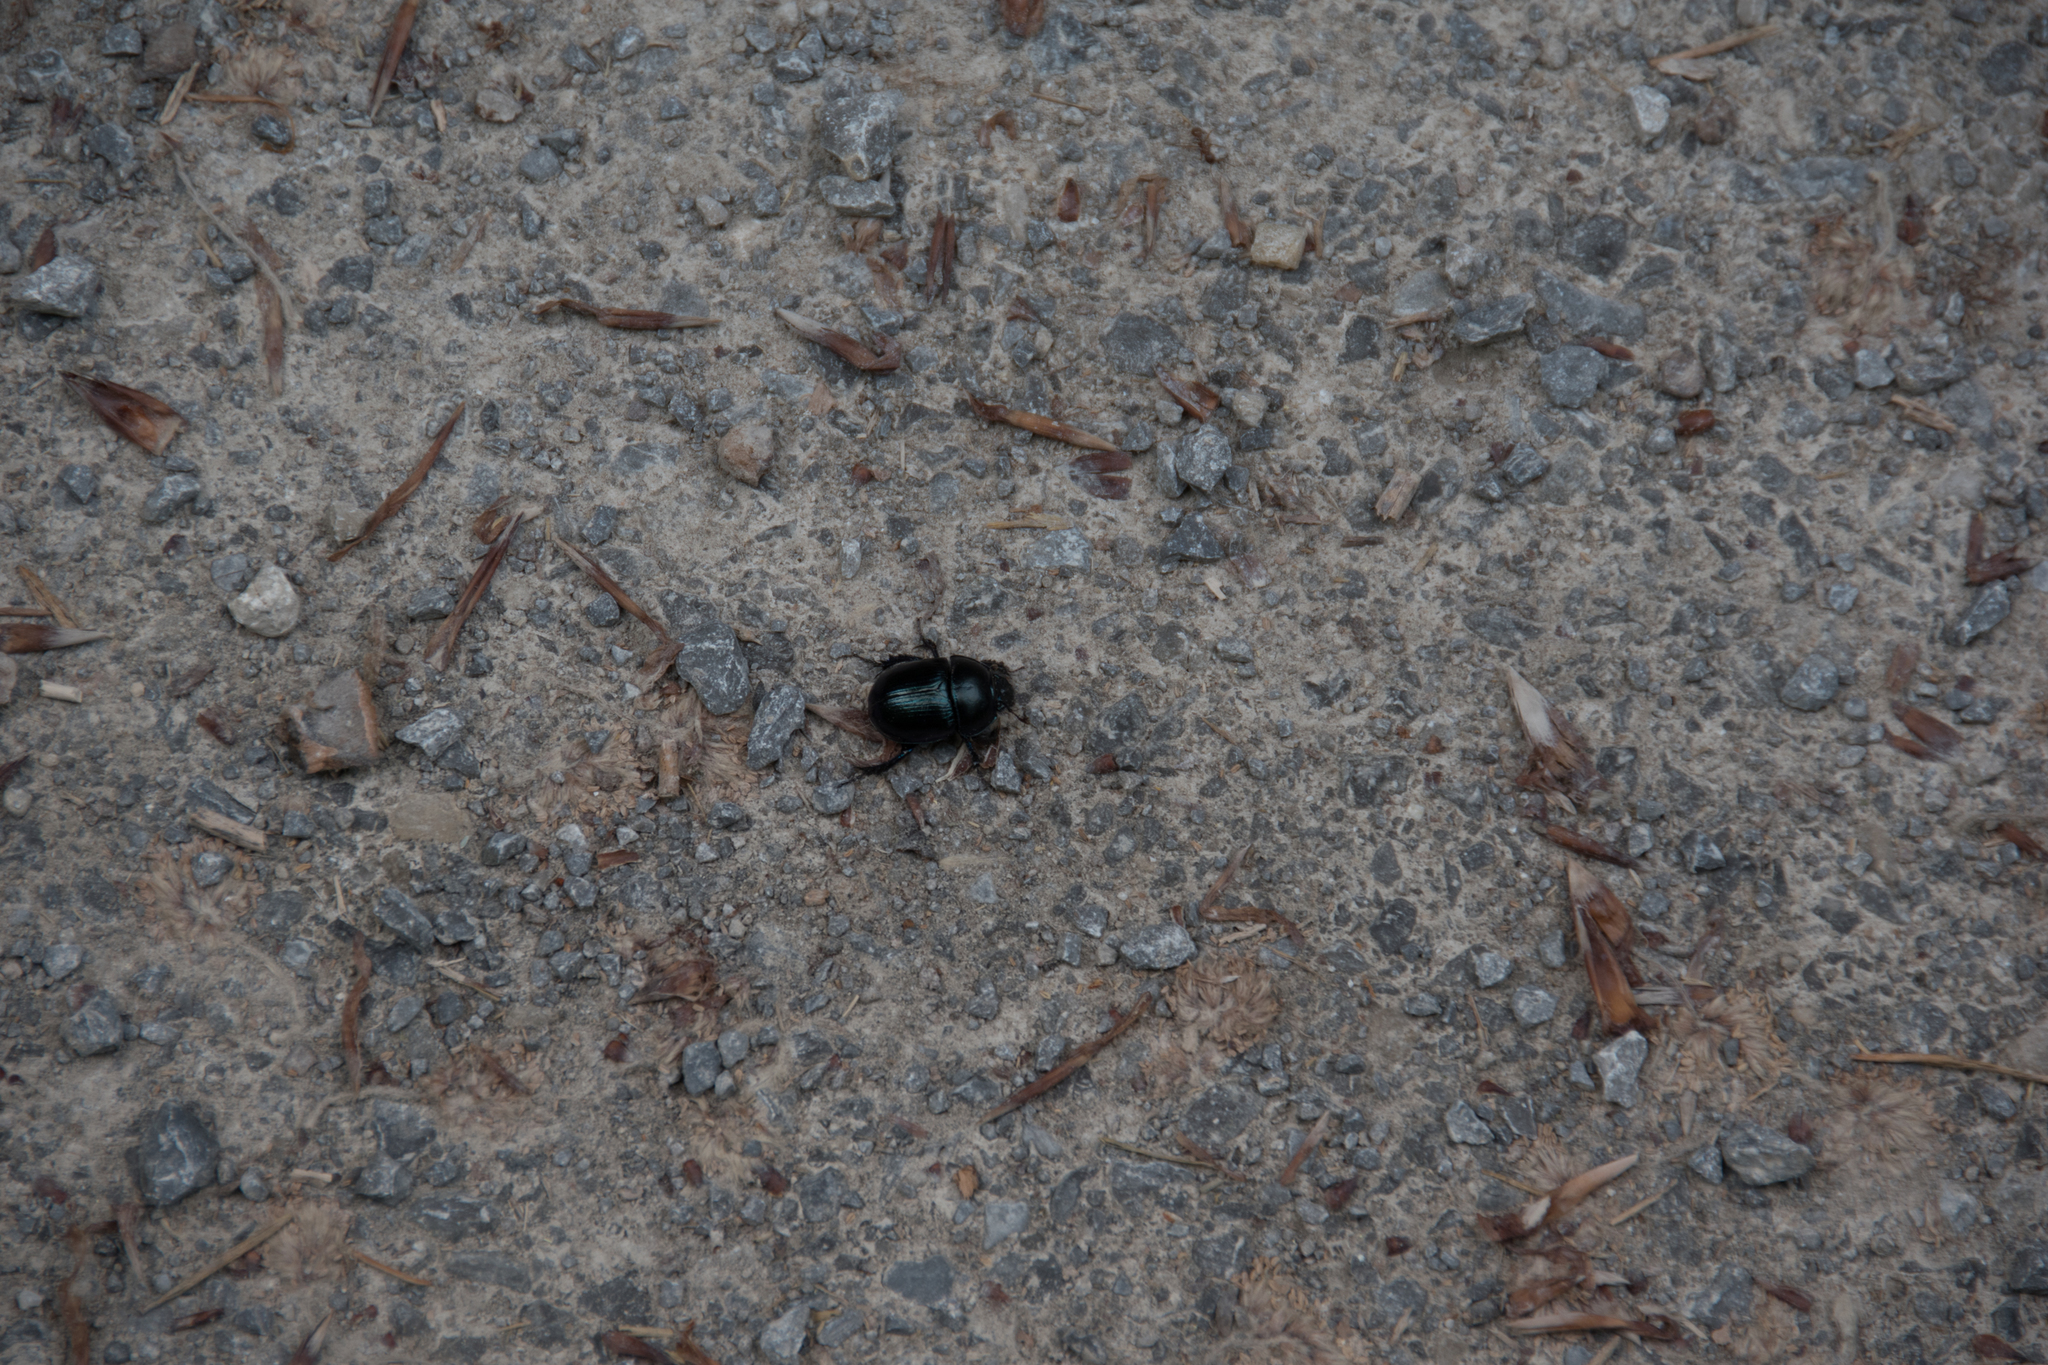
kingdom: Animalia
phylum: Arthropoda
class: Insecta
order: Coleoptera
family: Geotrupidae
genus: Anoplotrupes
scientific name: Anoplotrupes stercorosus
